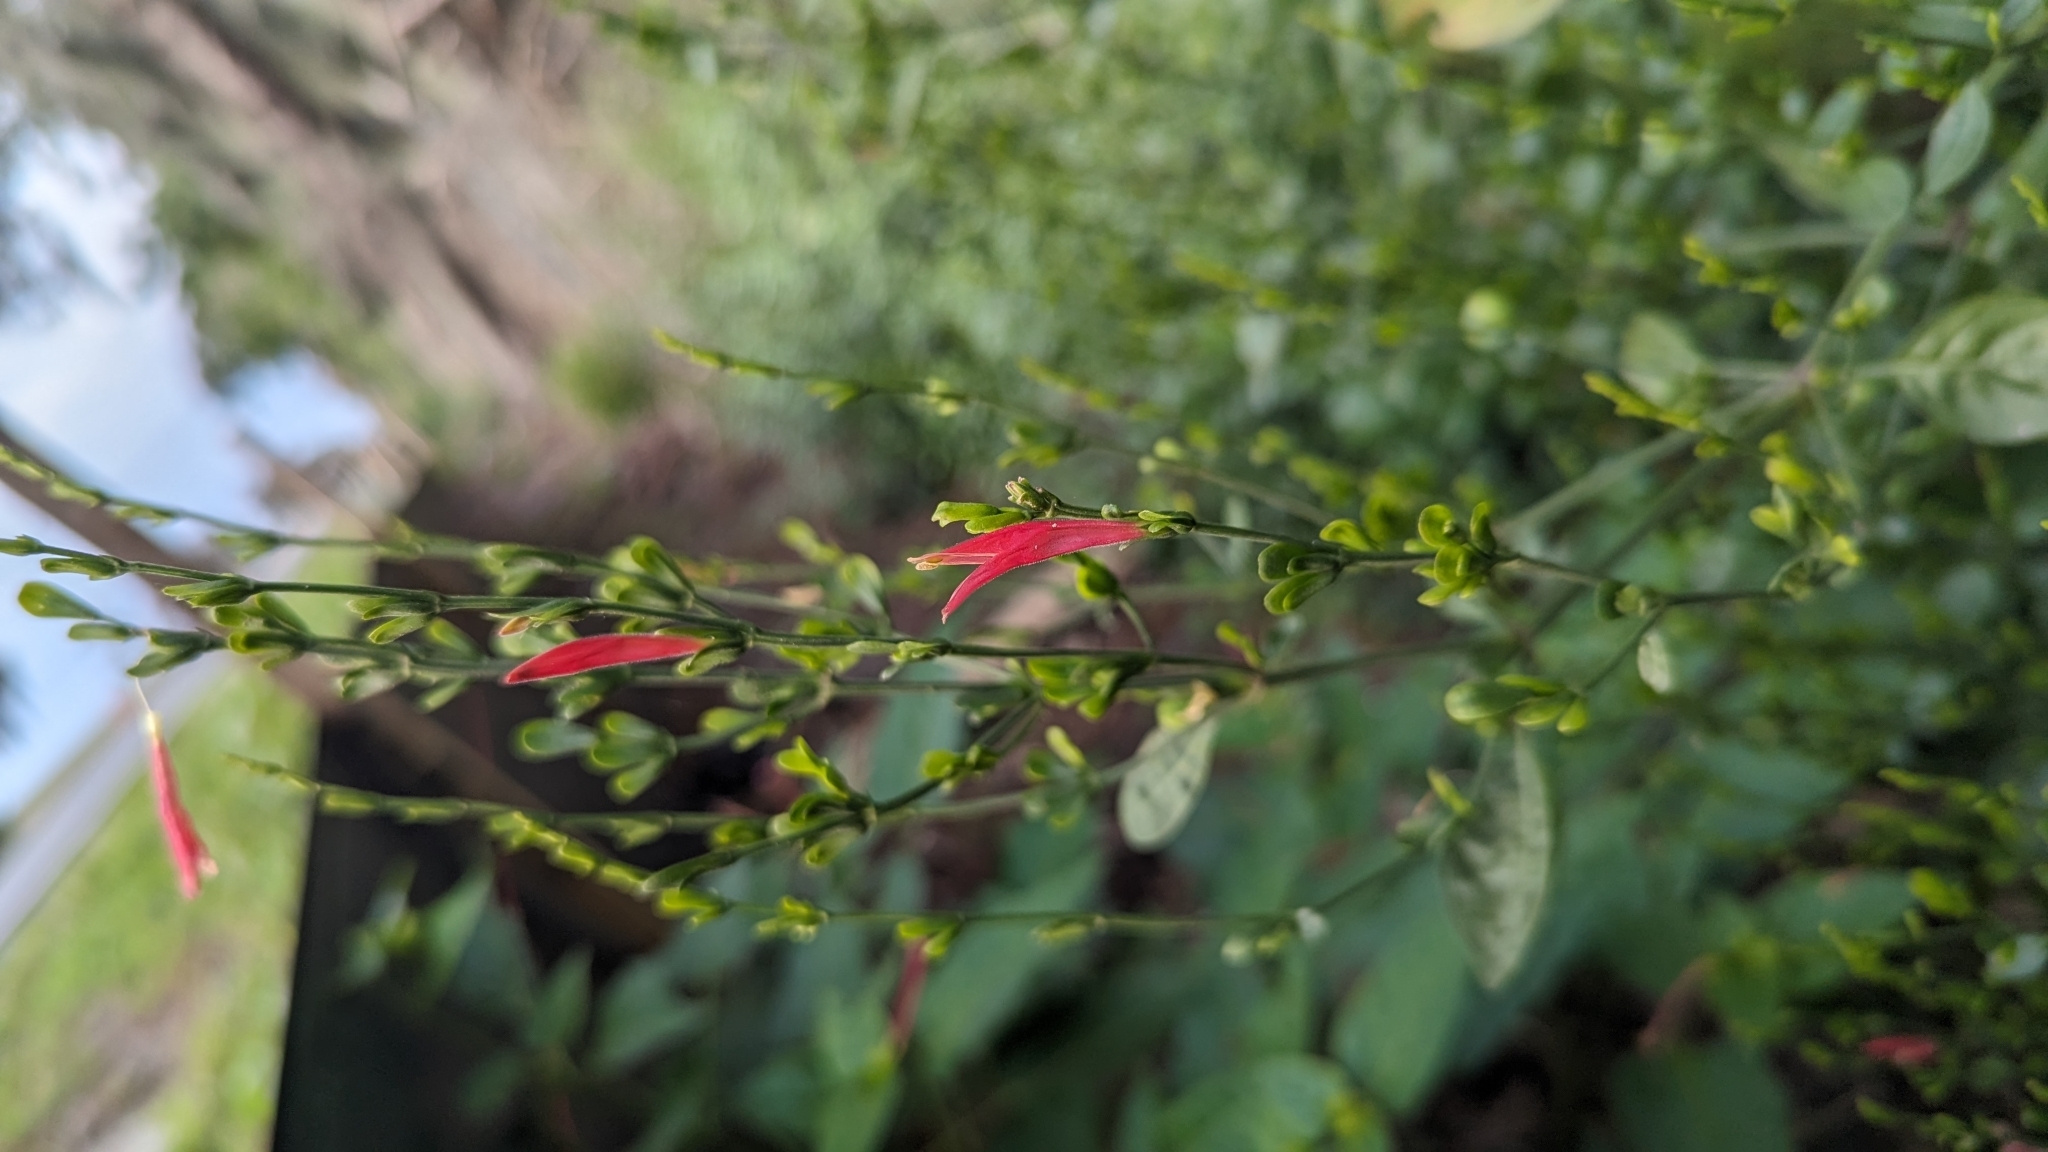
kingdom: Plantae
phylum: Tracheophyta
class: Magnoliopsida
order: Lamiales
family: Acanthaceae
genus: Dicliptera
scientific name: Dicliptera sexangularis
